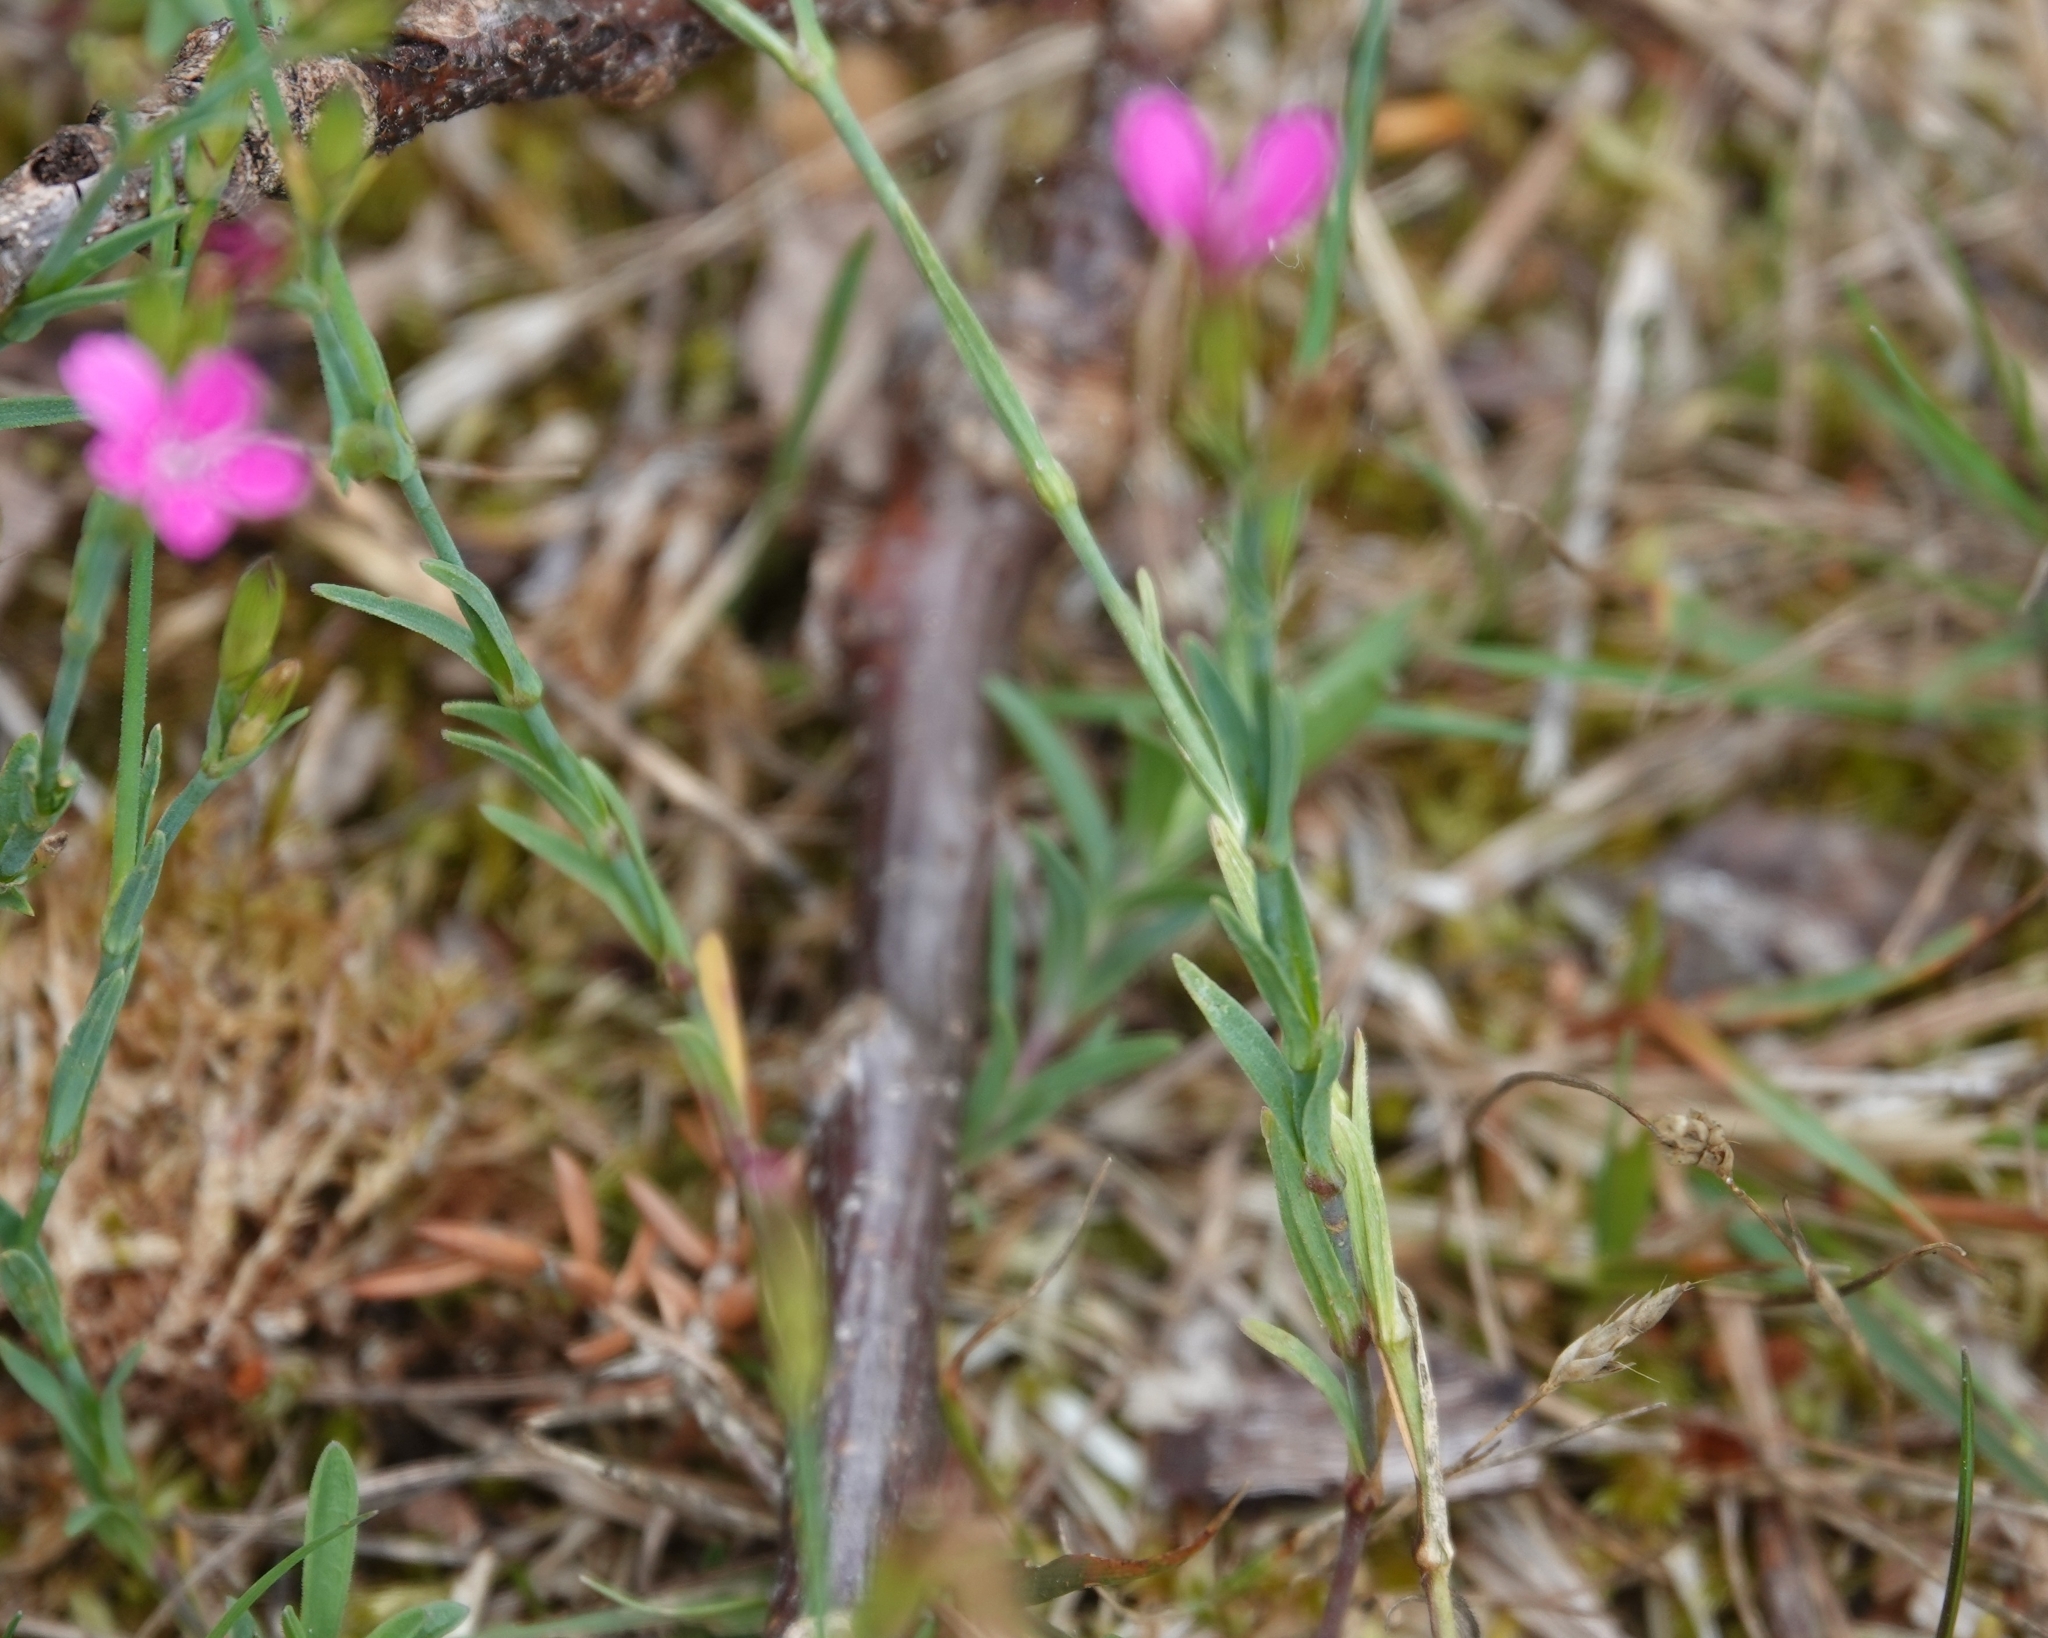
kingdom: Plantae
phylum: Tracheophyta
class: Magnoliopsida
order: Caryophyllales
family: Caryophyllaceae
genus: Dianthus
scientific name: Dianthus deltoides
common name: Maiden pink
